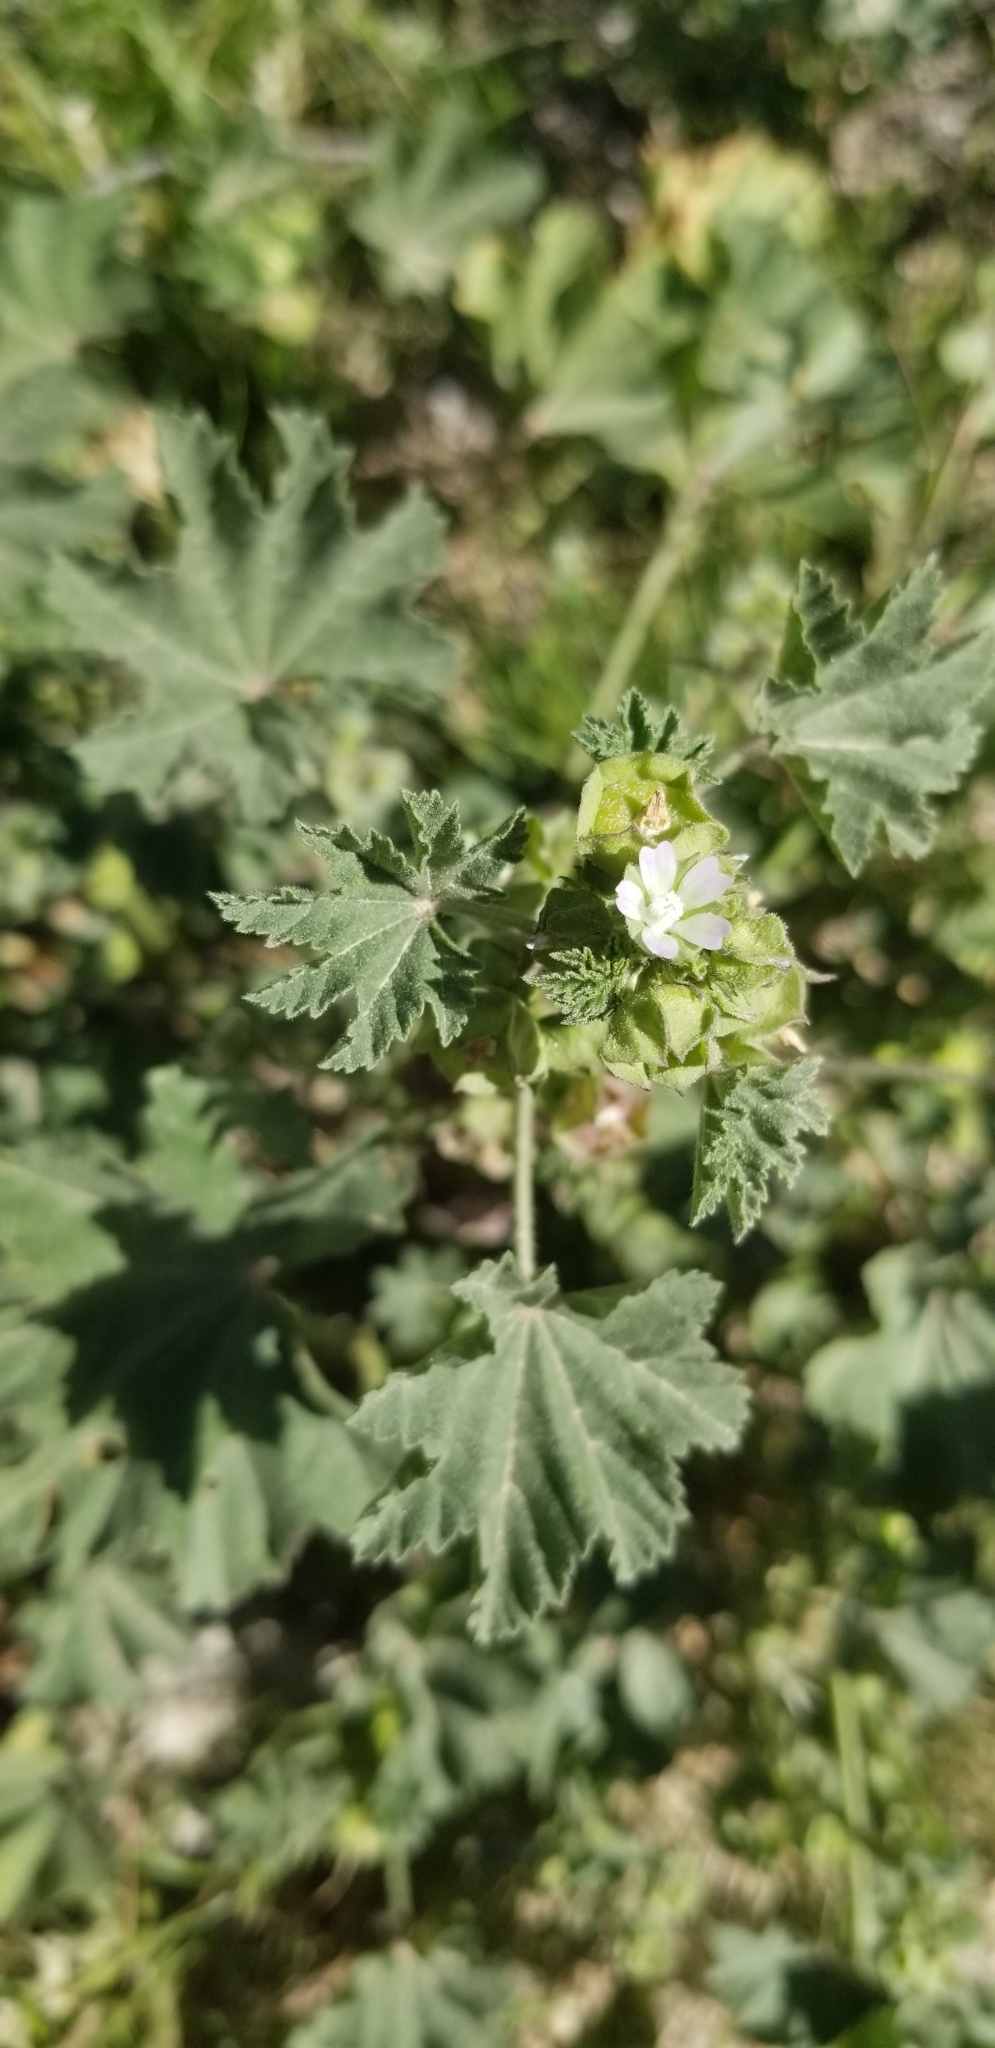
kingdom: Plantae
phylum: Tracheophyta
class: Magnoliopsida
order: Malvales
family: Malvaceae
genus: Malva
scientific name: Malva parviflora
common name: Least mallow
